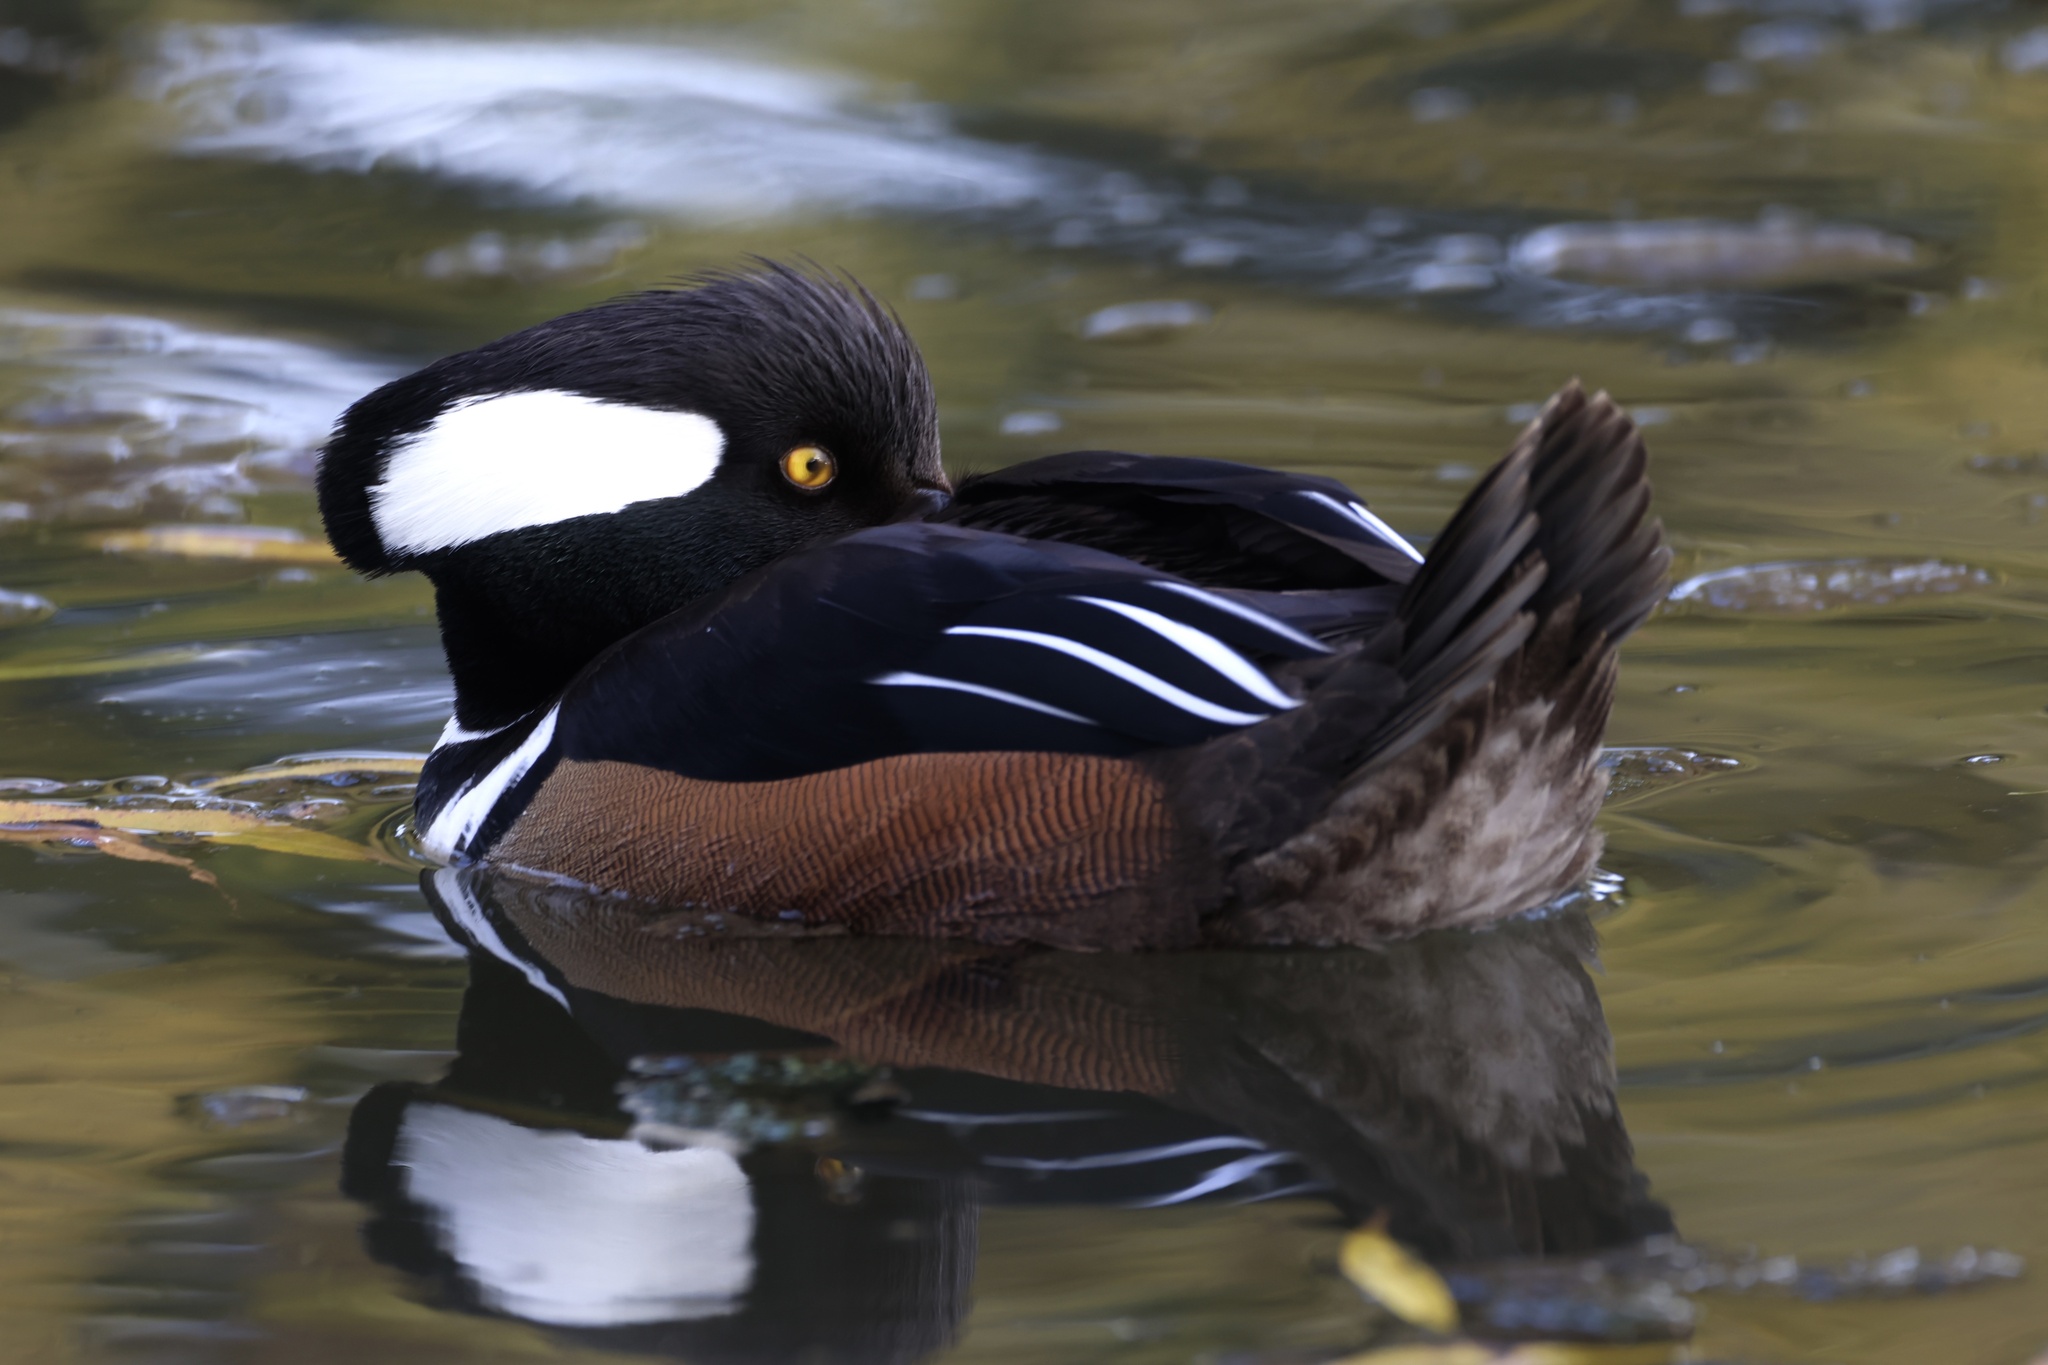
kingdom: Animalia
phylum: Chordata
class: Aves
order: Anseriformes
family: Anatidae
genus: Lophodytes
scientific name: Lophodytes cucullatus
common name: Hooded merganser
